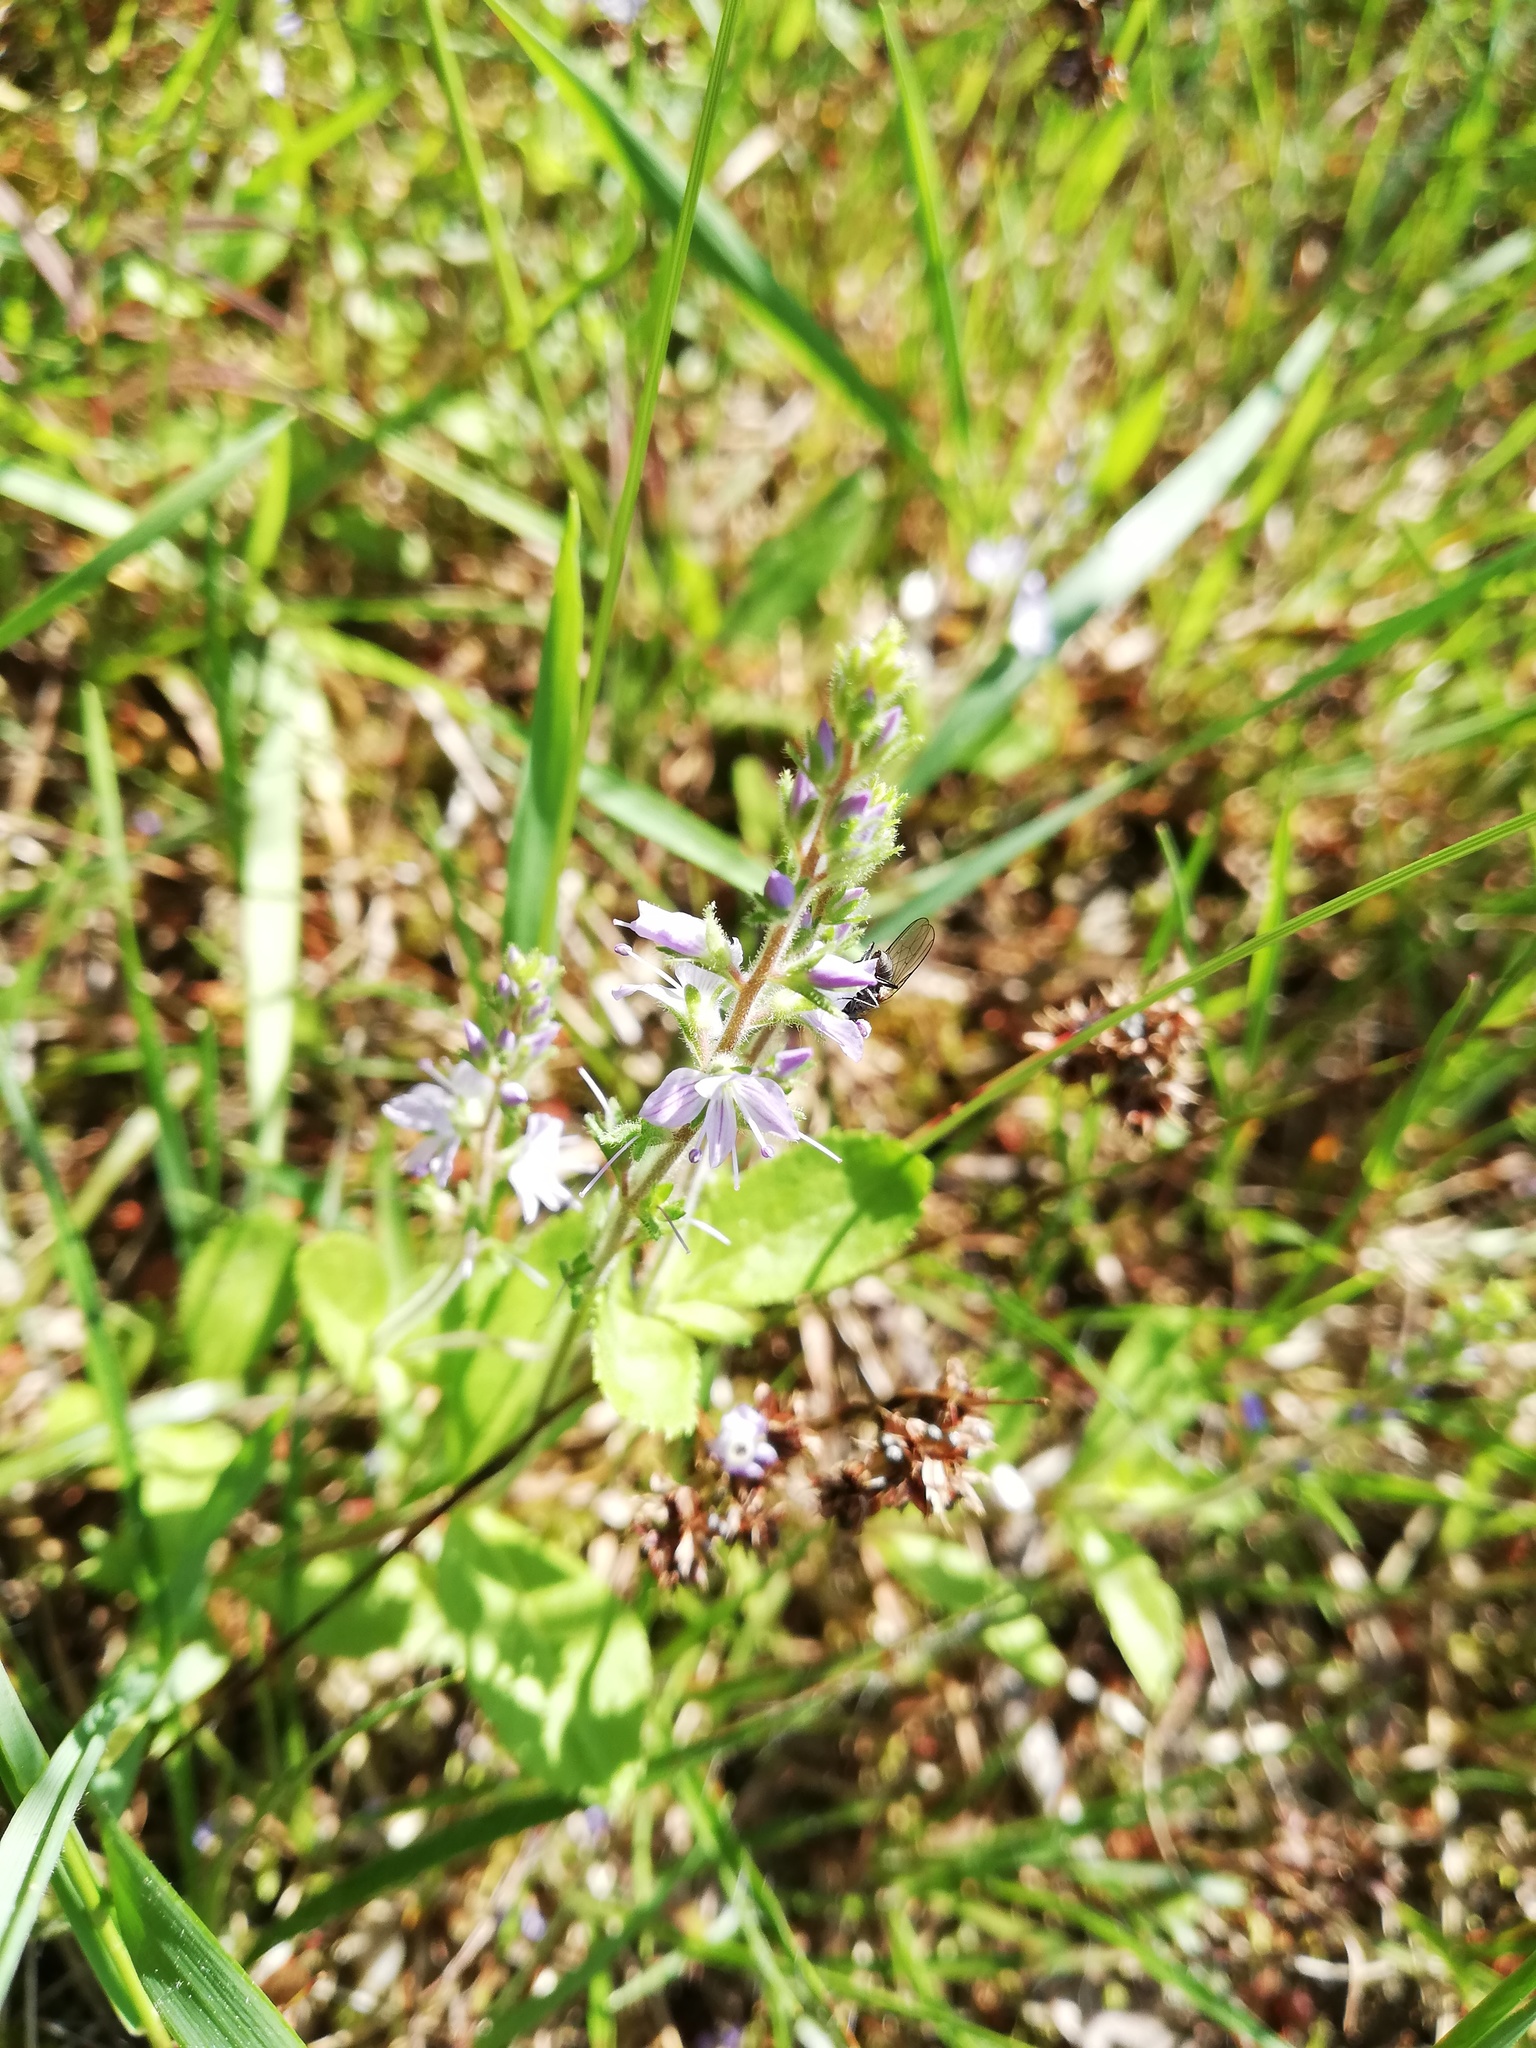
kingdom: Plantae
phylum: Tracheophyta
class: Magnoliopsida
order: Lamiales
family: Plantaginaceae
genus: Veronica
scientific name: Veronica officinalis
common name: Common speedwell
